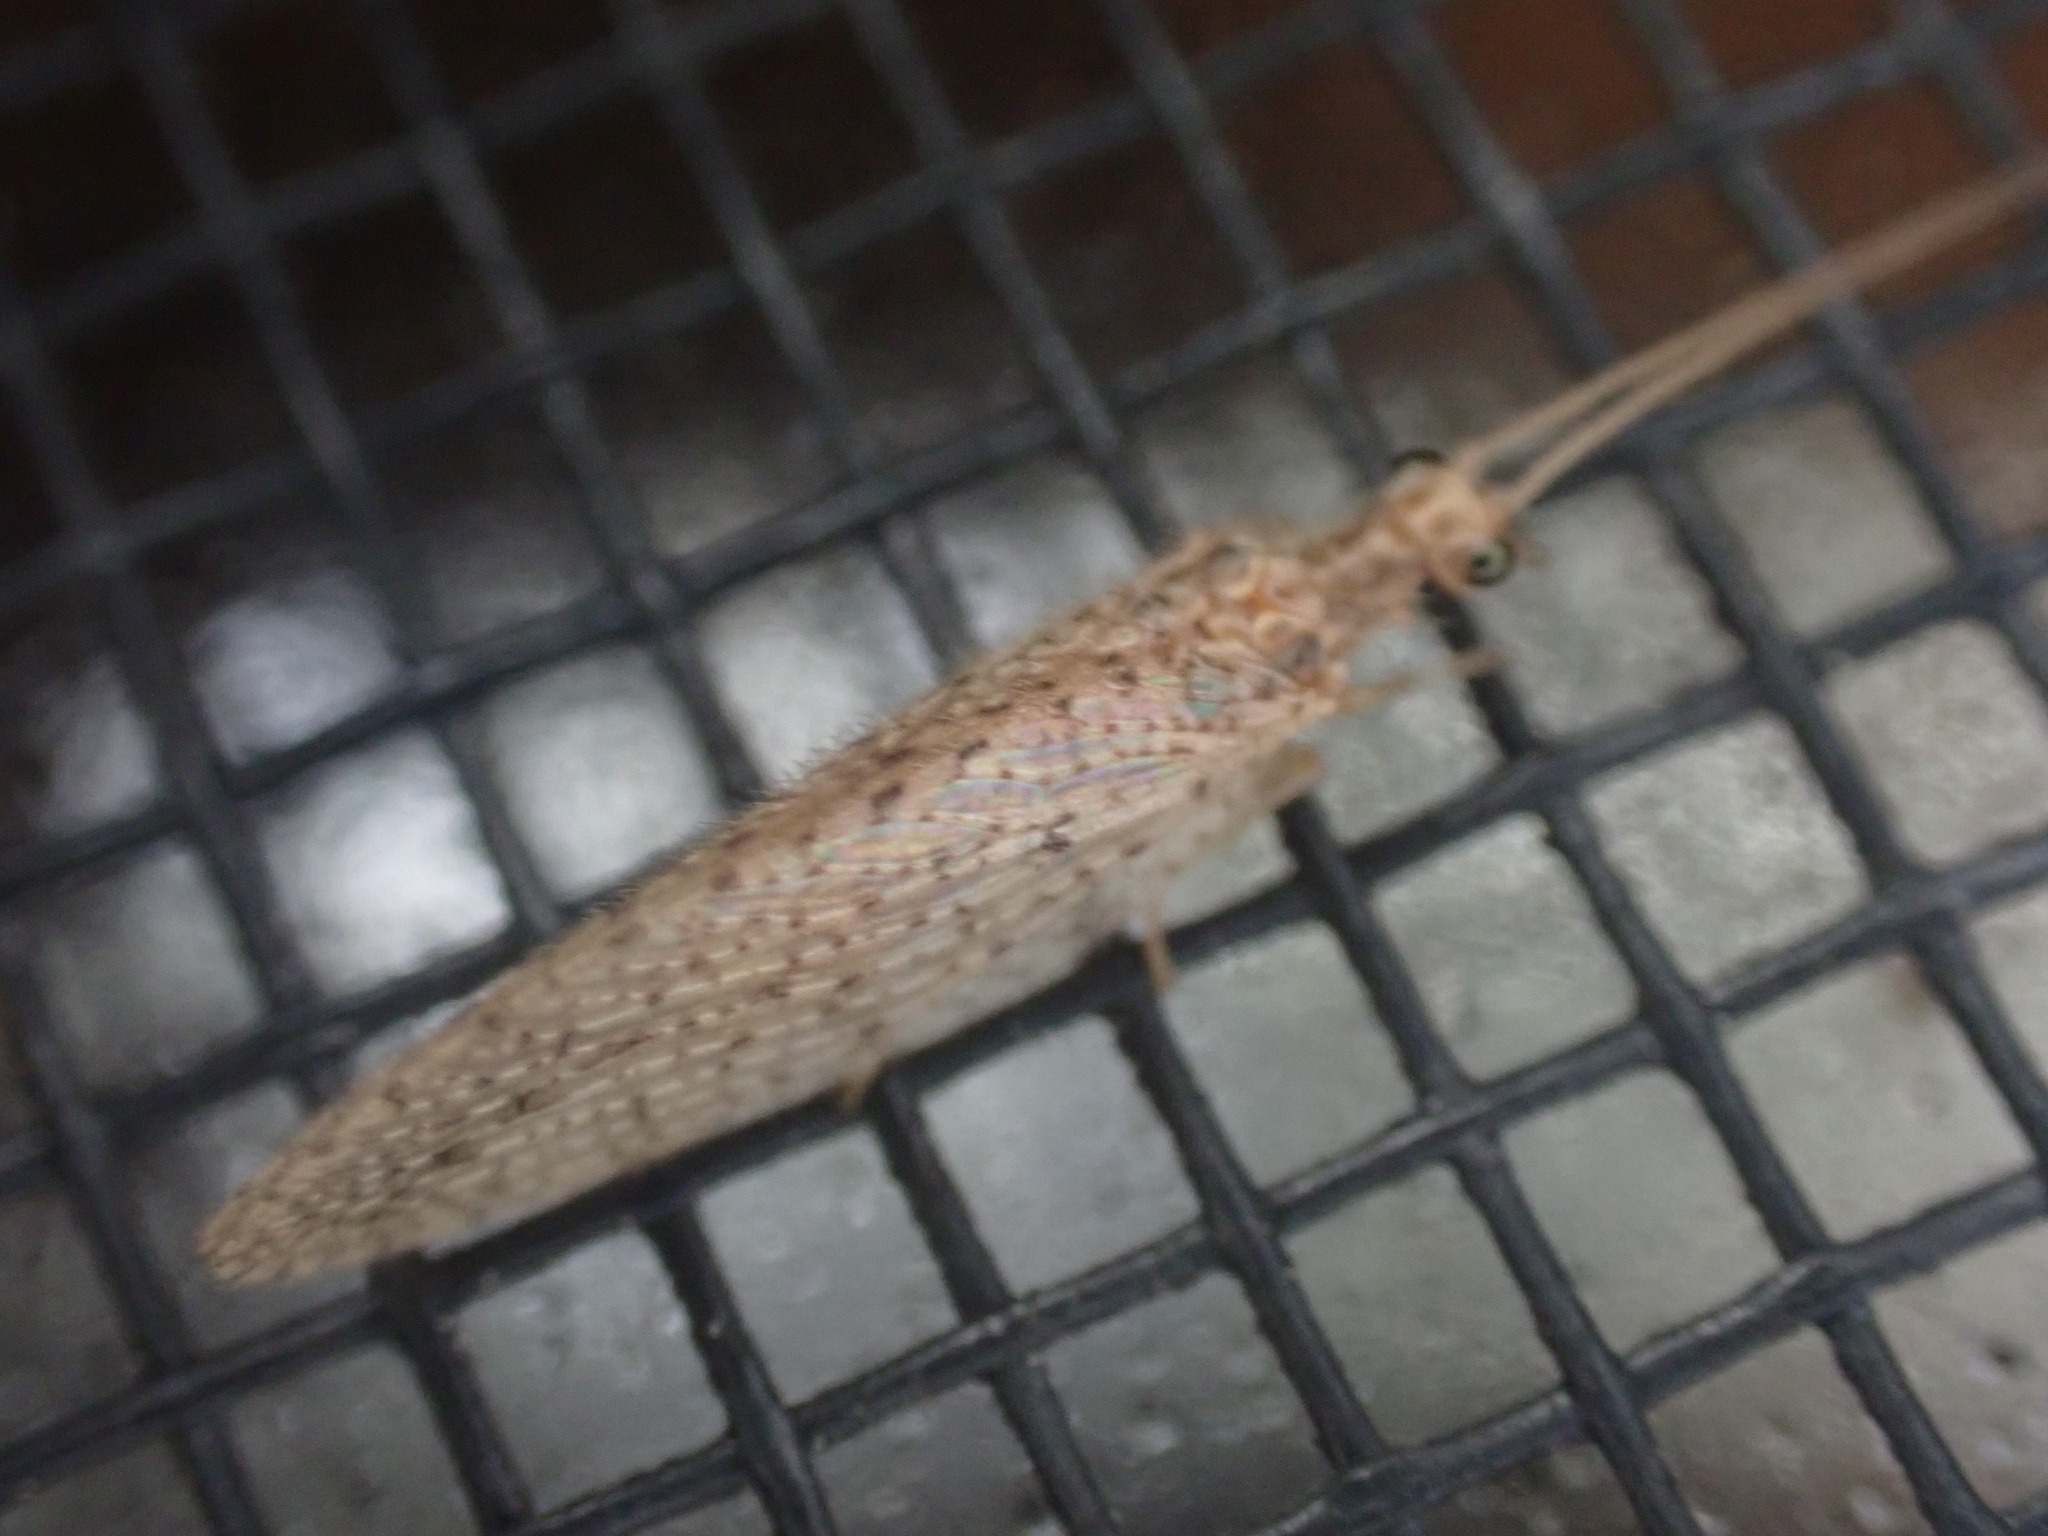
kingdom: Animalia
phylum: Arthropoda
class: Insecta
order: Neuroptera
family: Hemerobiidae
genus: Micromus
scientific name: Micromus subanticus
